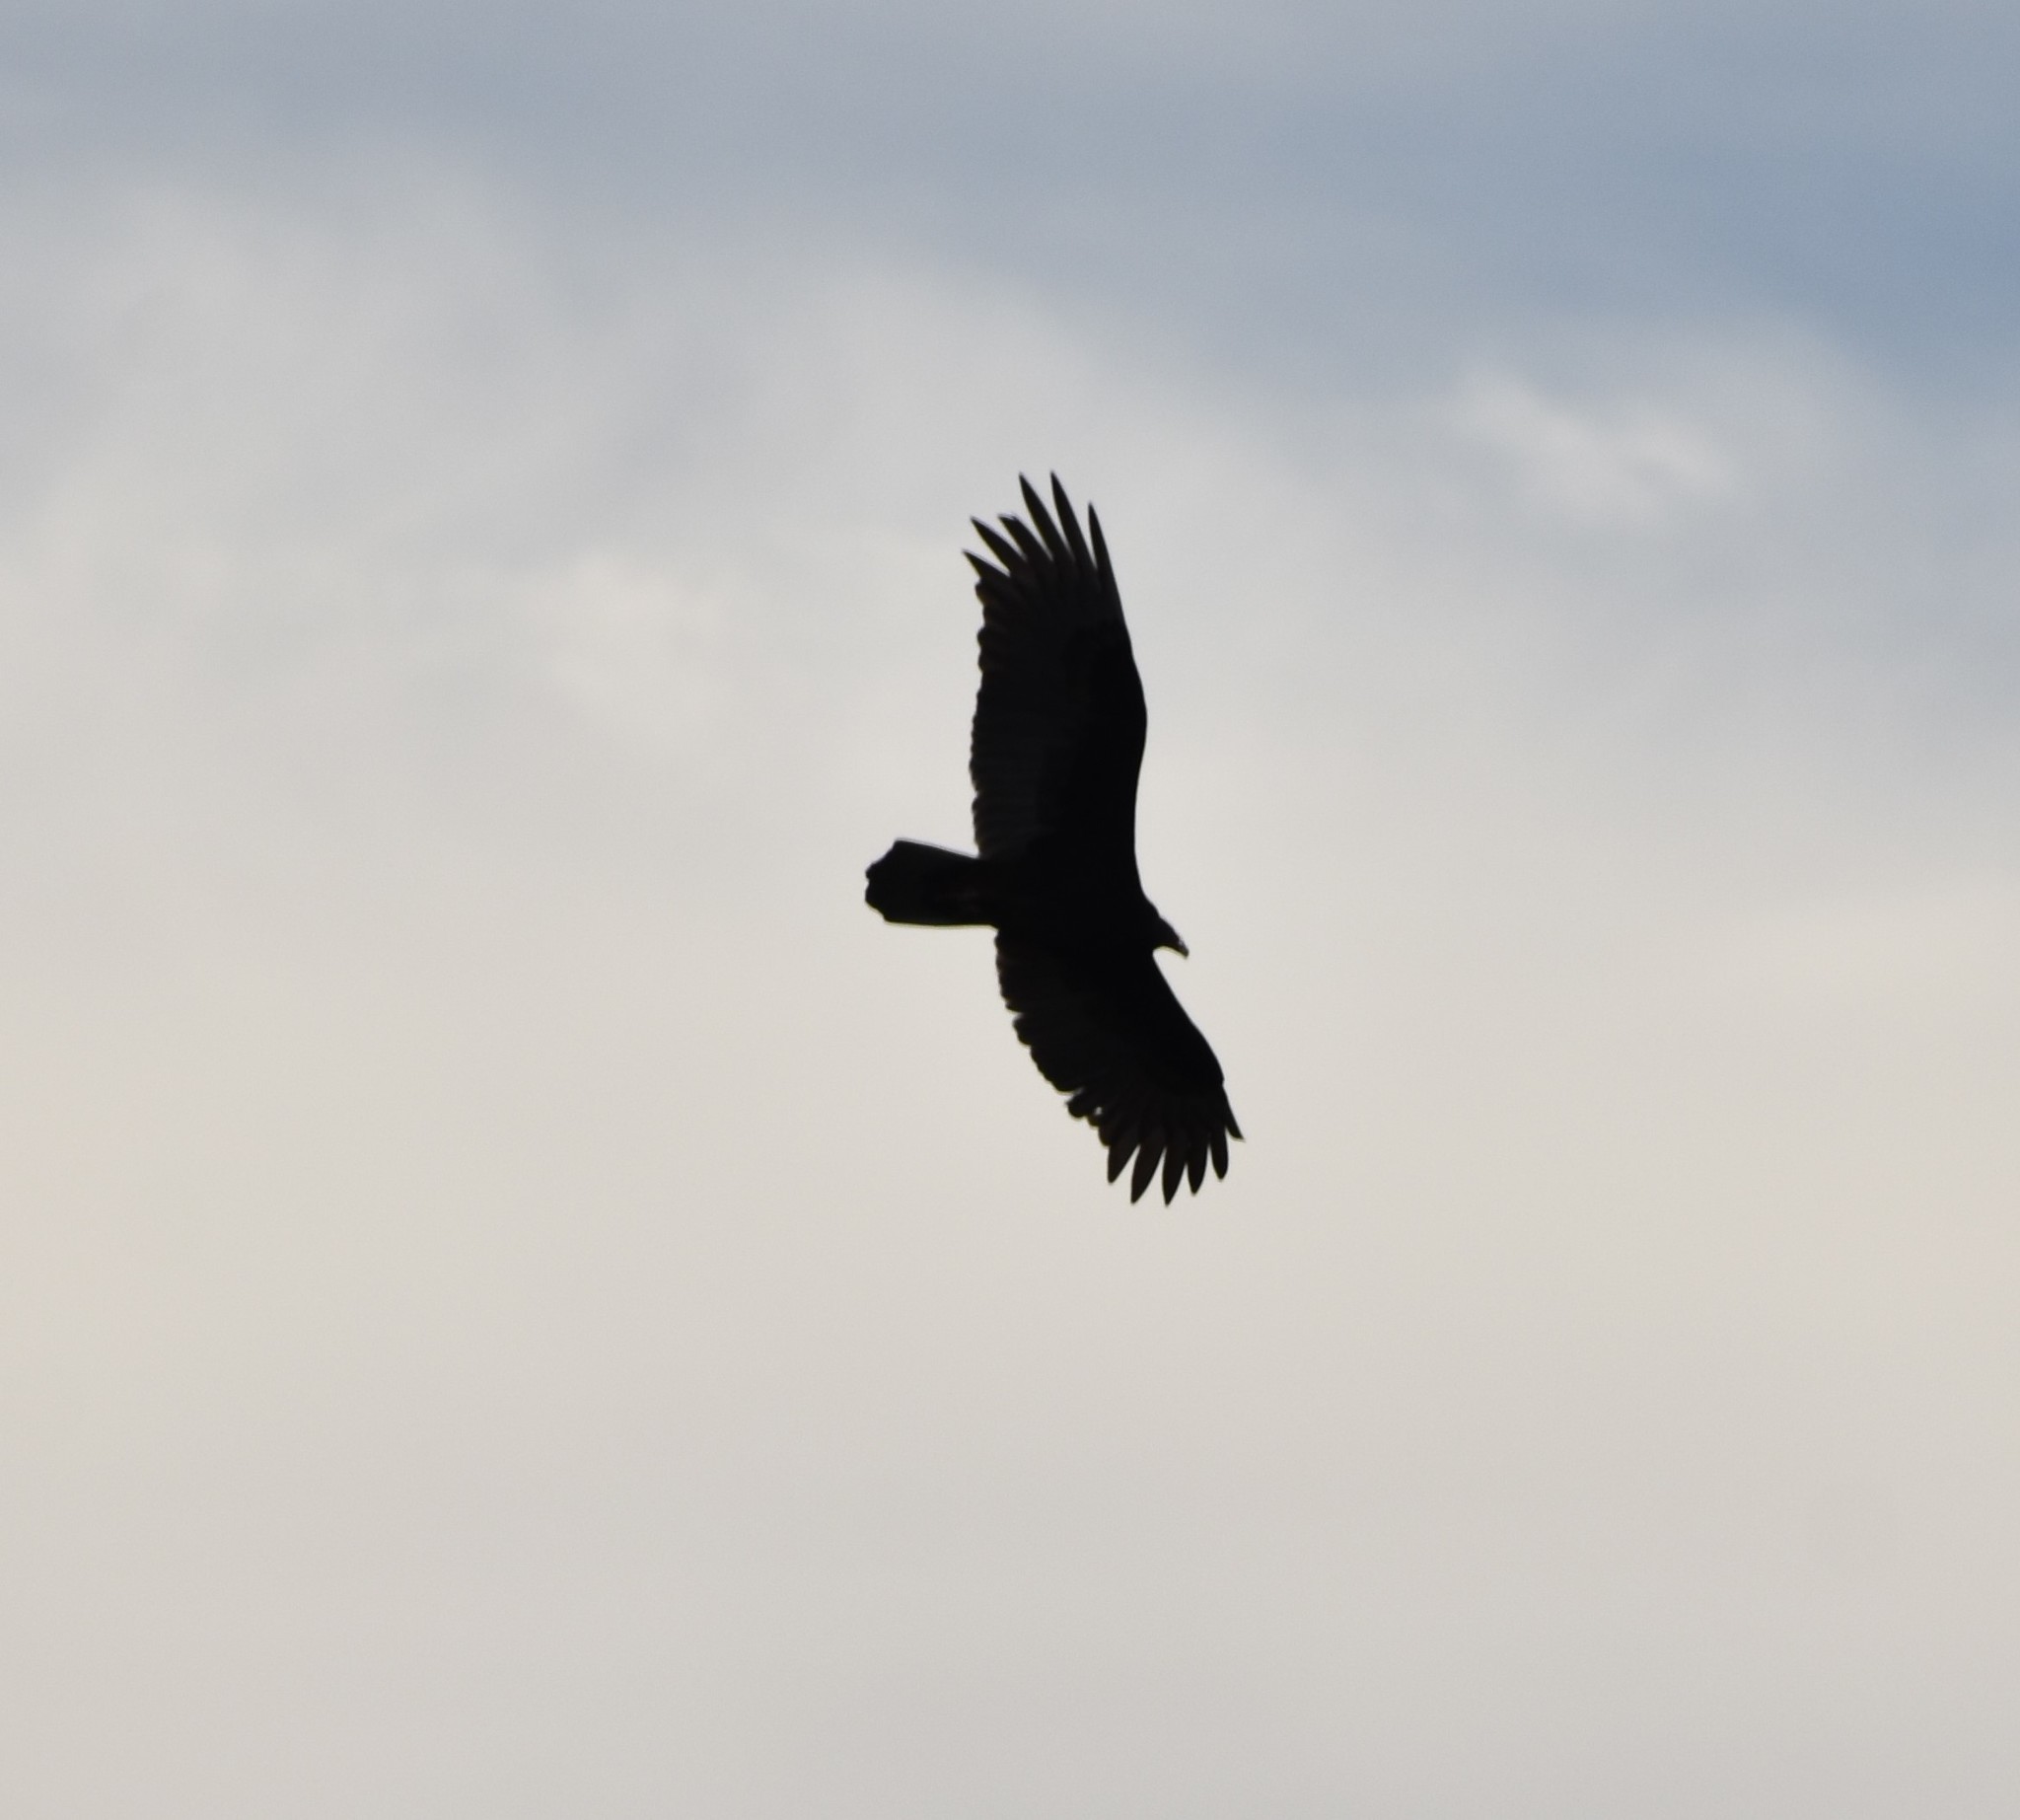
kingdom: Animalia
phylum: Chordata
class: Aves
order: Accipitriformes
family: Cathartidae
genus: Cathartes
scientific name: Cathartes aura
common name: Turkey vulture
